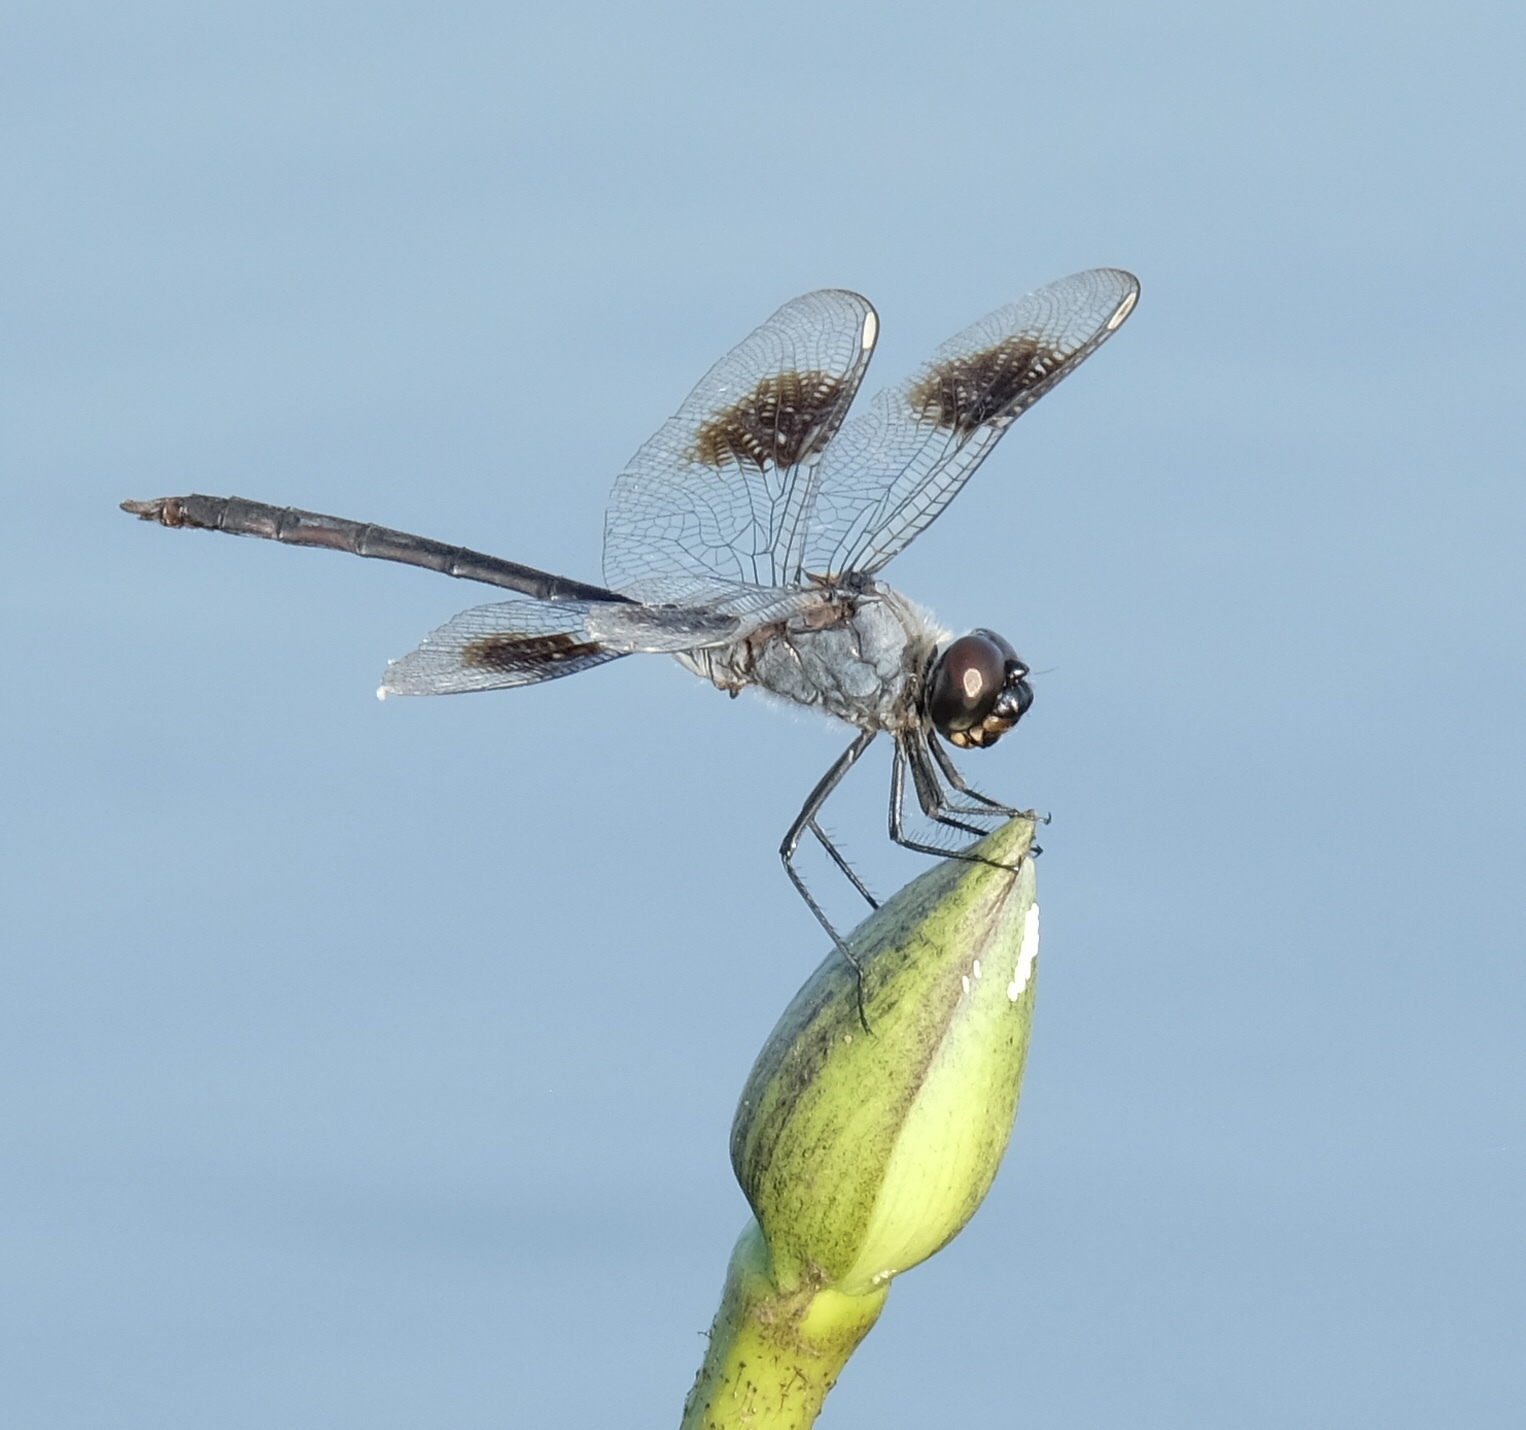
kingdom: Animalia
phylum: Arthropoda
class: Insecta
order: Odonata
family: Libellulidae
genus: Brachymesia
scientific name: Brachymesia gravida
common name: Four-spotted pennant
